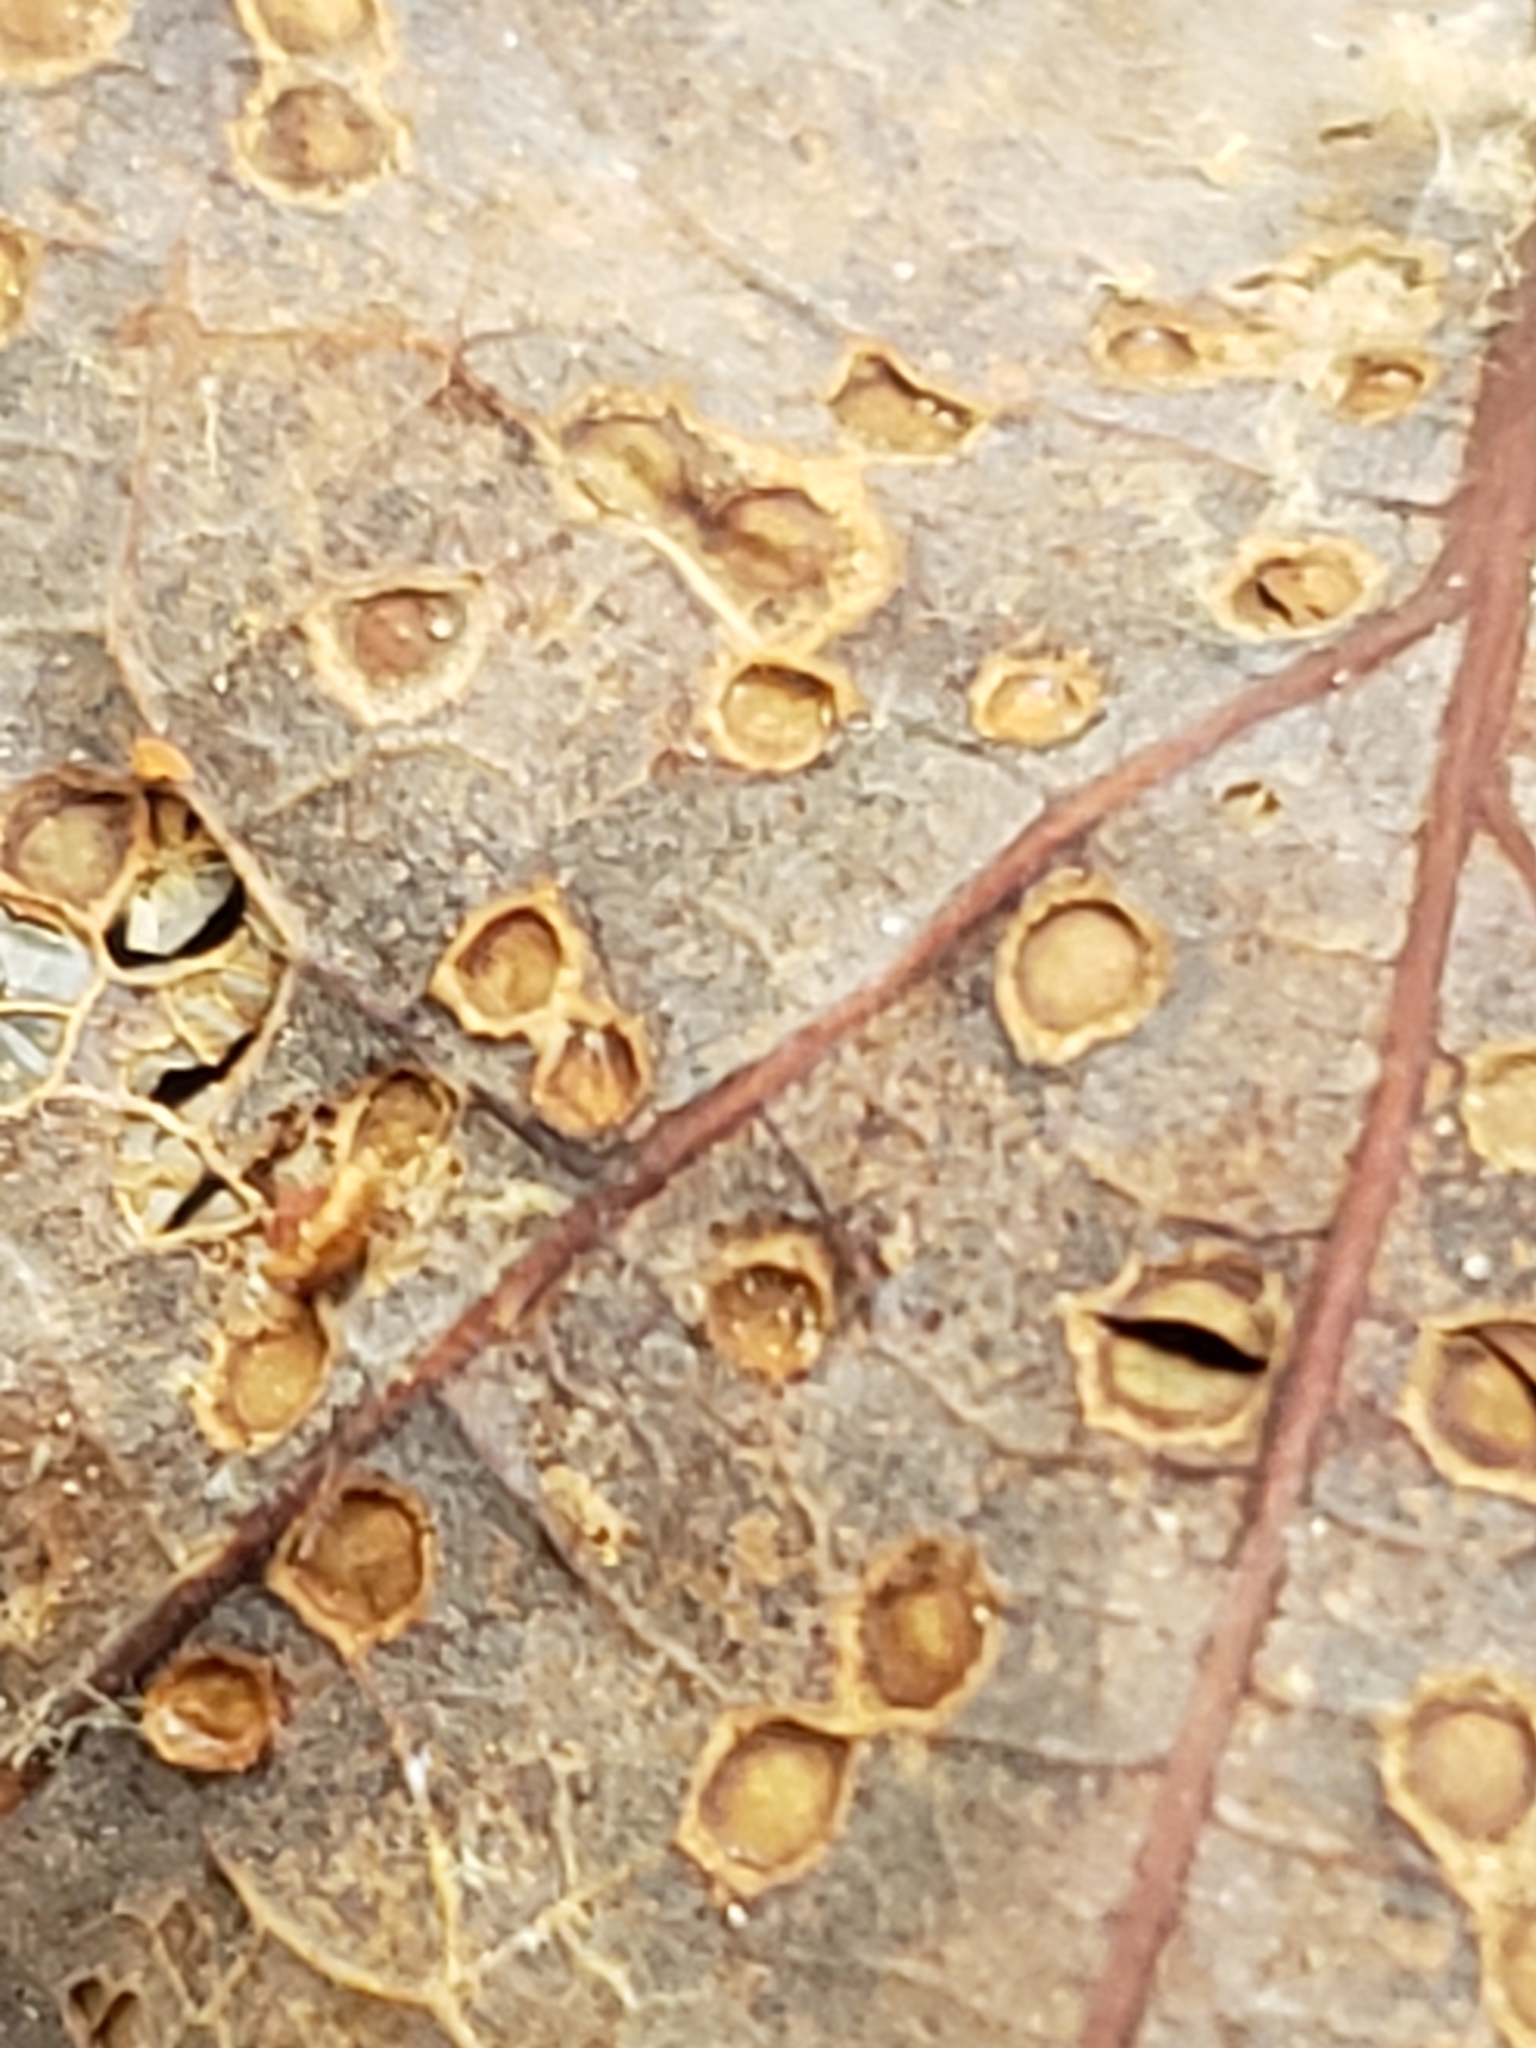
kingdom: Animalia
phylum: Arthropoda
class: Insecta
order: Hymenoptera
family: Cynipidae
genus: Neuroterus
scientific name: Neuroterus
